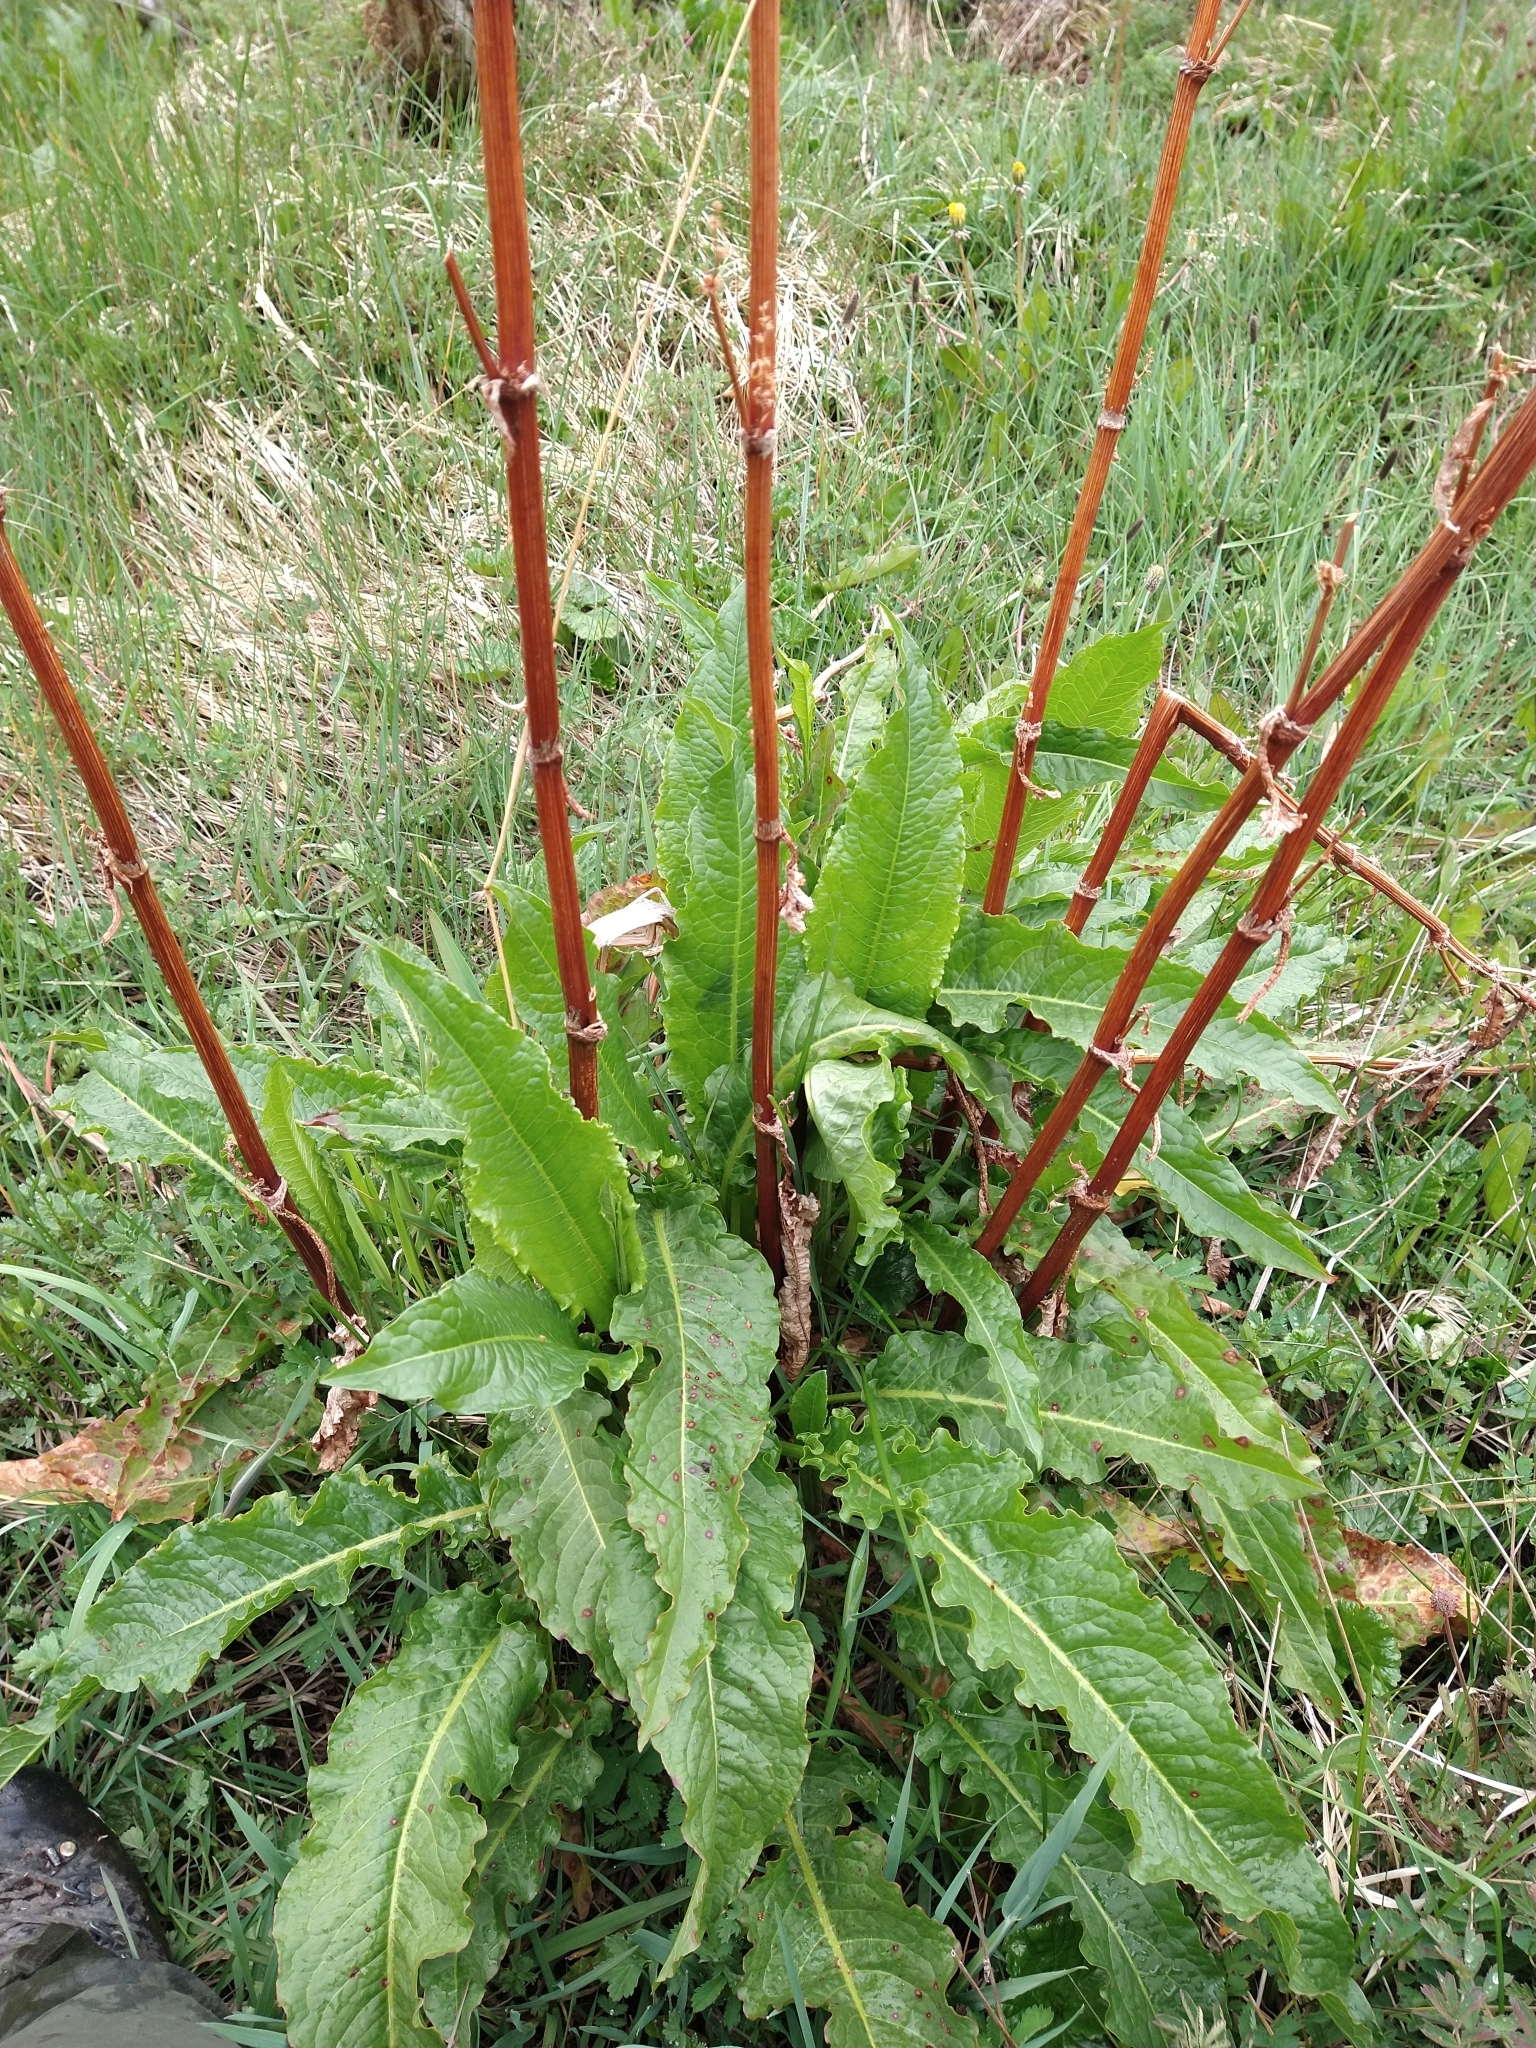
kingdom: Plantae
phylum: Tracheophyta
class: Magnoliopsida
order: Caryophyllales
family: Polygonaceae
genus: Rumex
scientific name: Rumex crispus
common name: Curled dock
